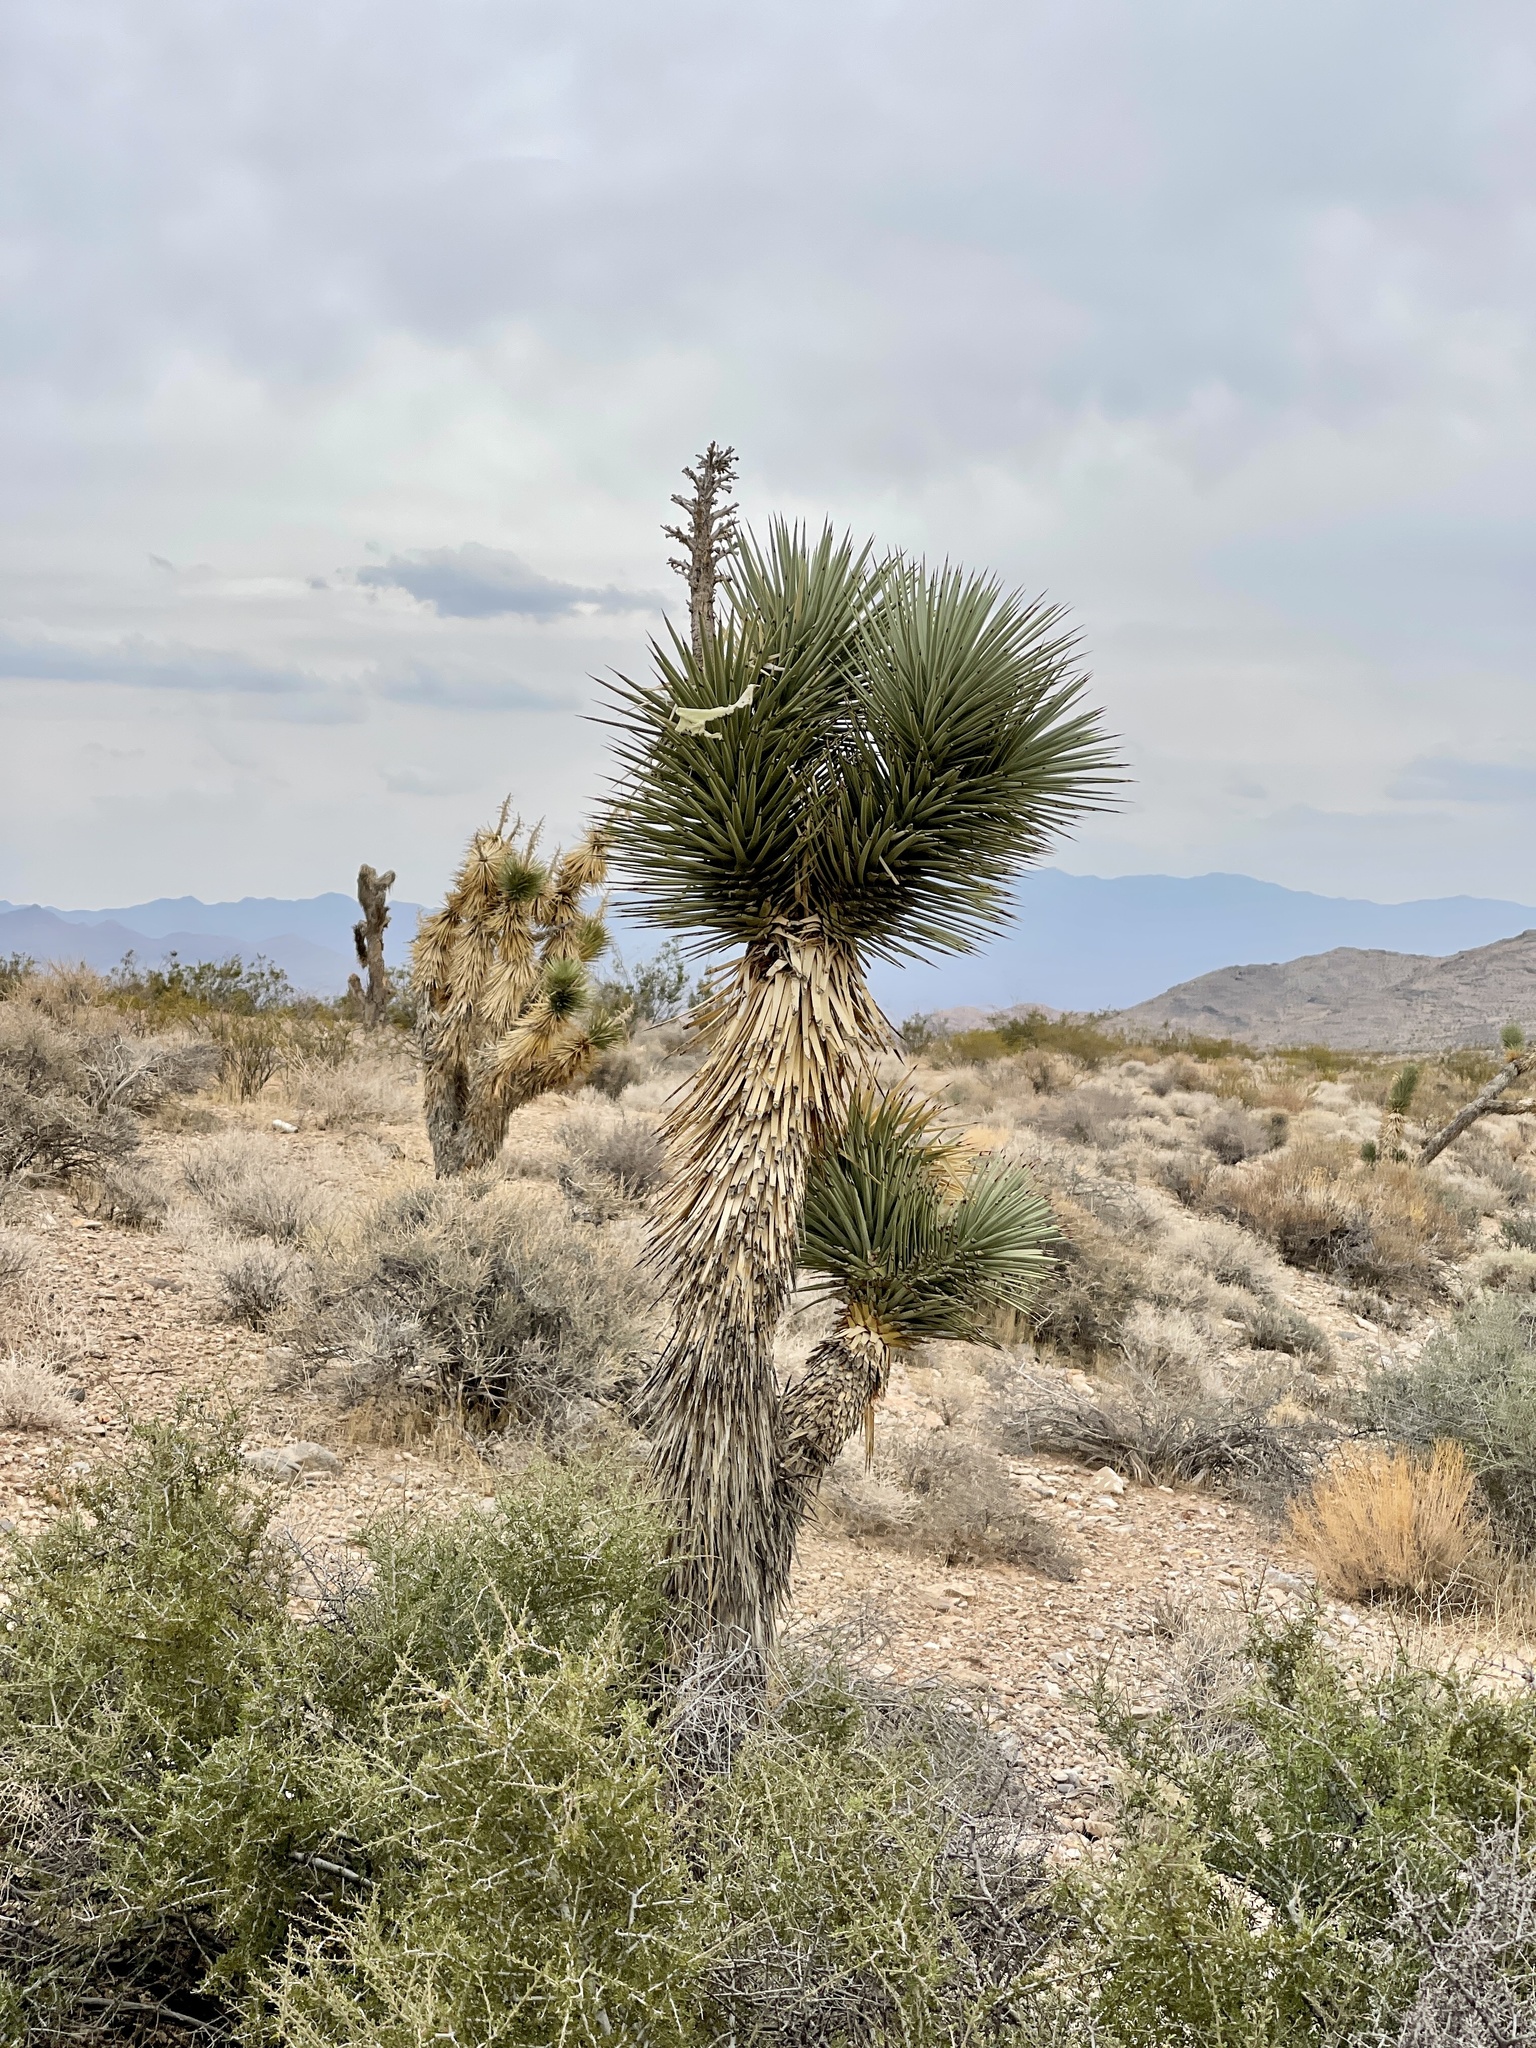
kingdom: Plantae
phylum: Tracheophyta
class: Liliopsida
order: Asparagales
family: Asparagaceae
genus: Yucca
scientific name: Yucca brevifolia
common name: Joshua tree
